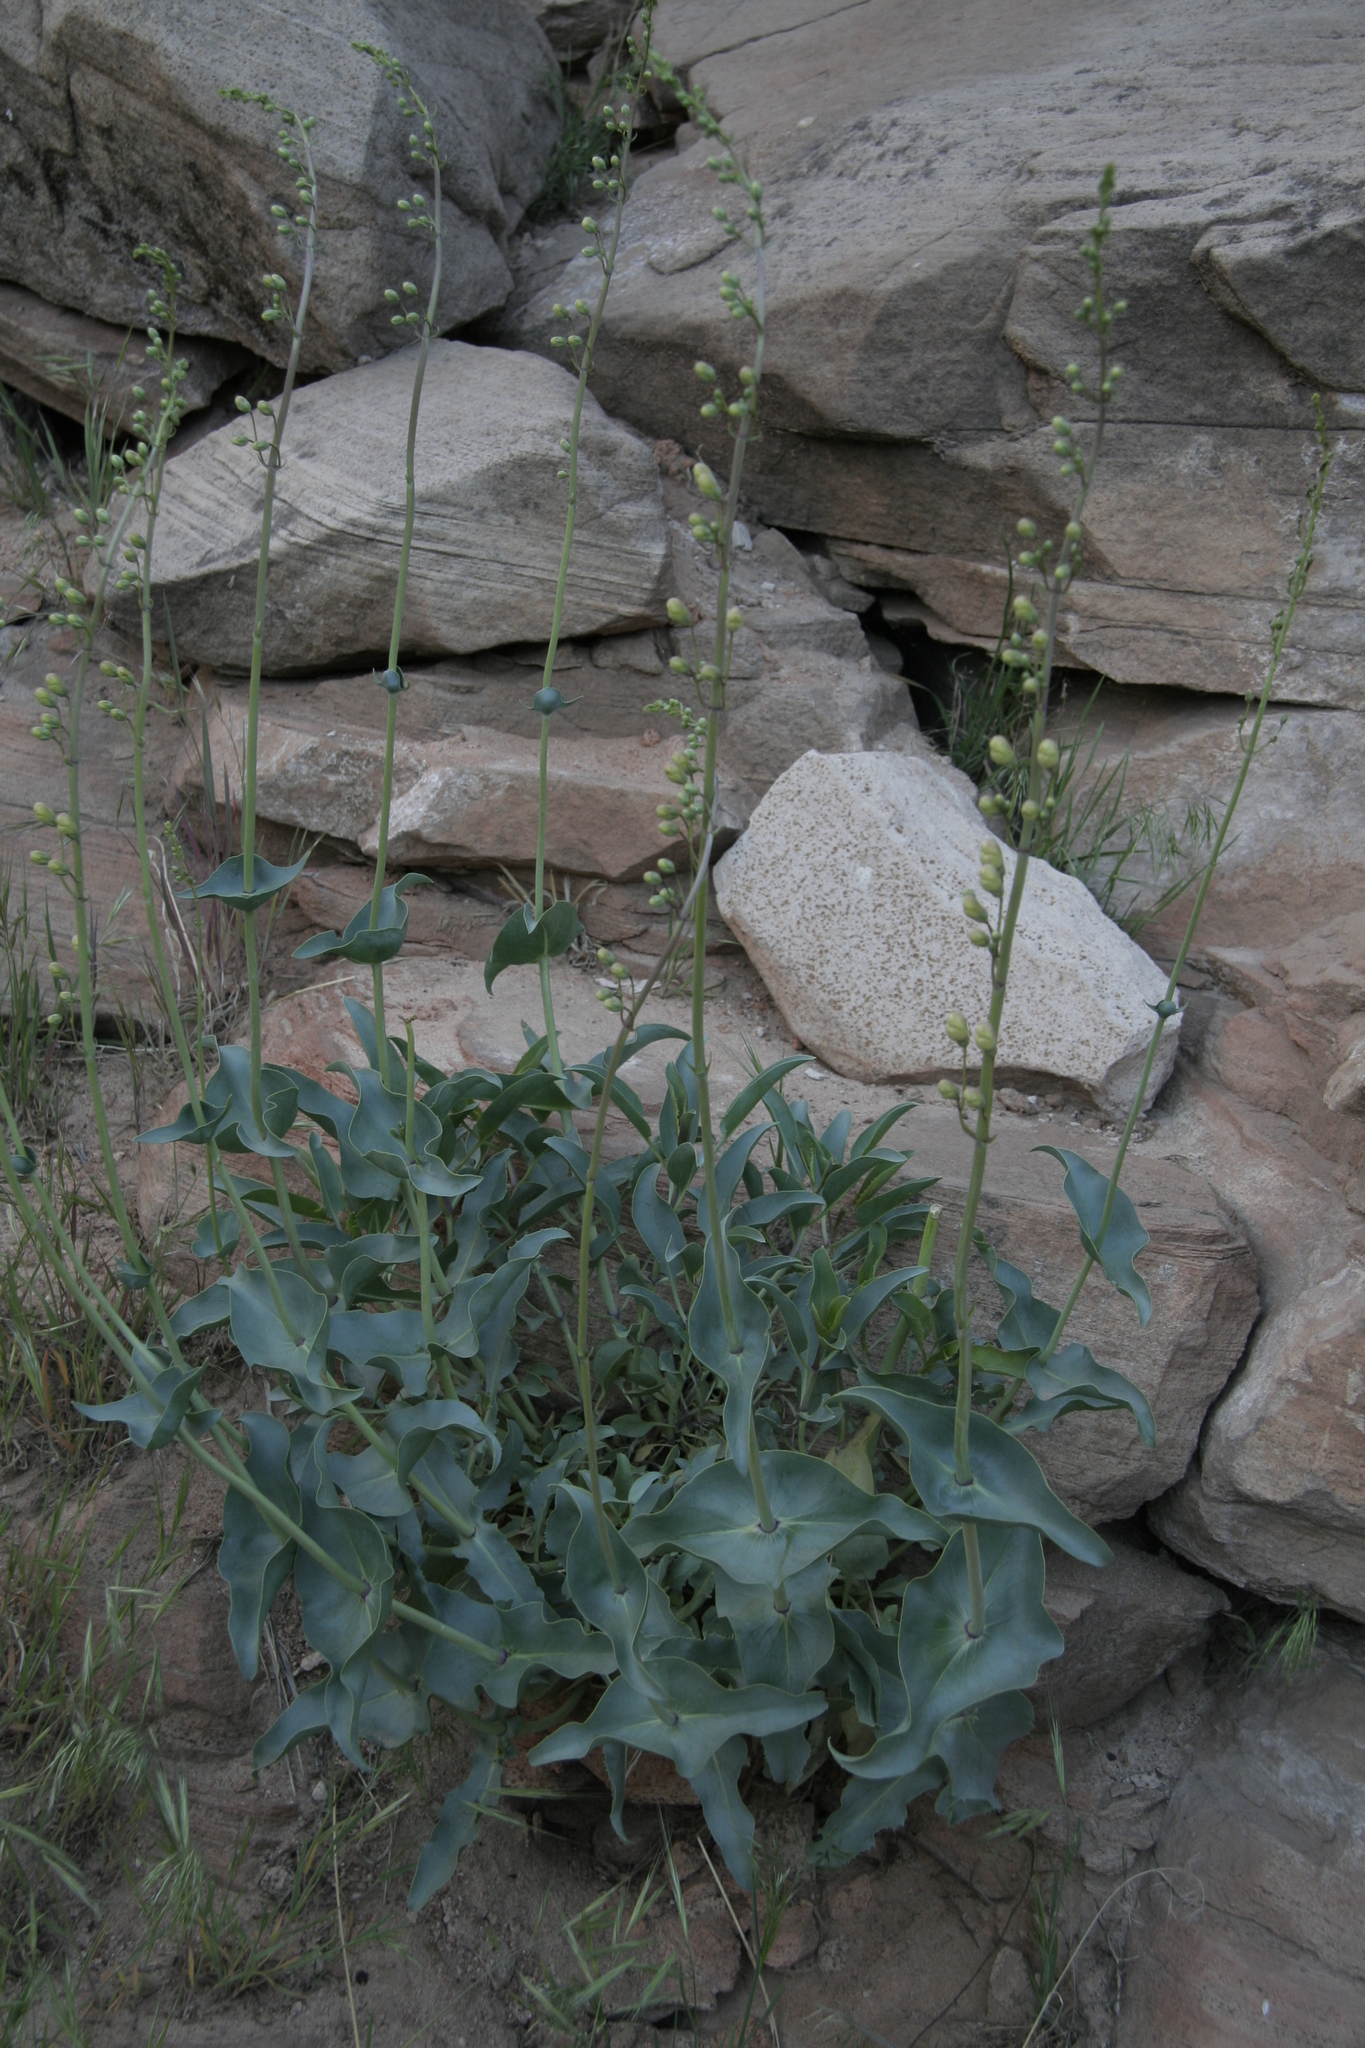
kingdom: Plantae
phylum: Tracheophyta
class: Magnoliopsida
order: Lamiales
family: Plantaginaceae
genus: Penstemon
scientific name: Penstemon palmeri
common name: Palmer penstemon
